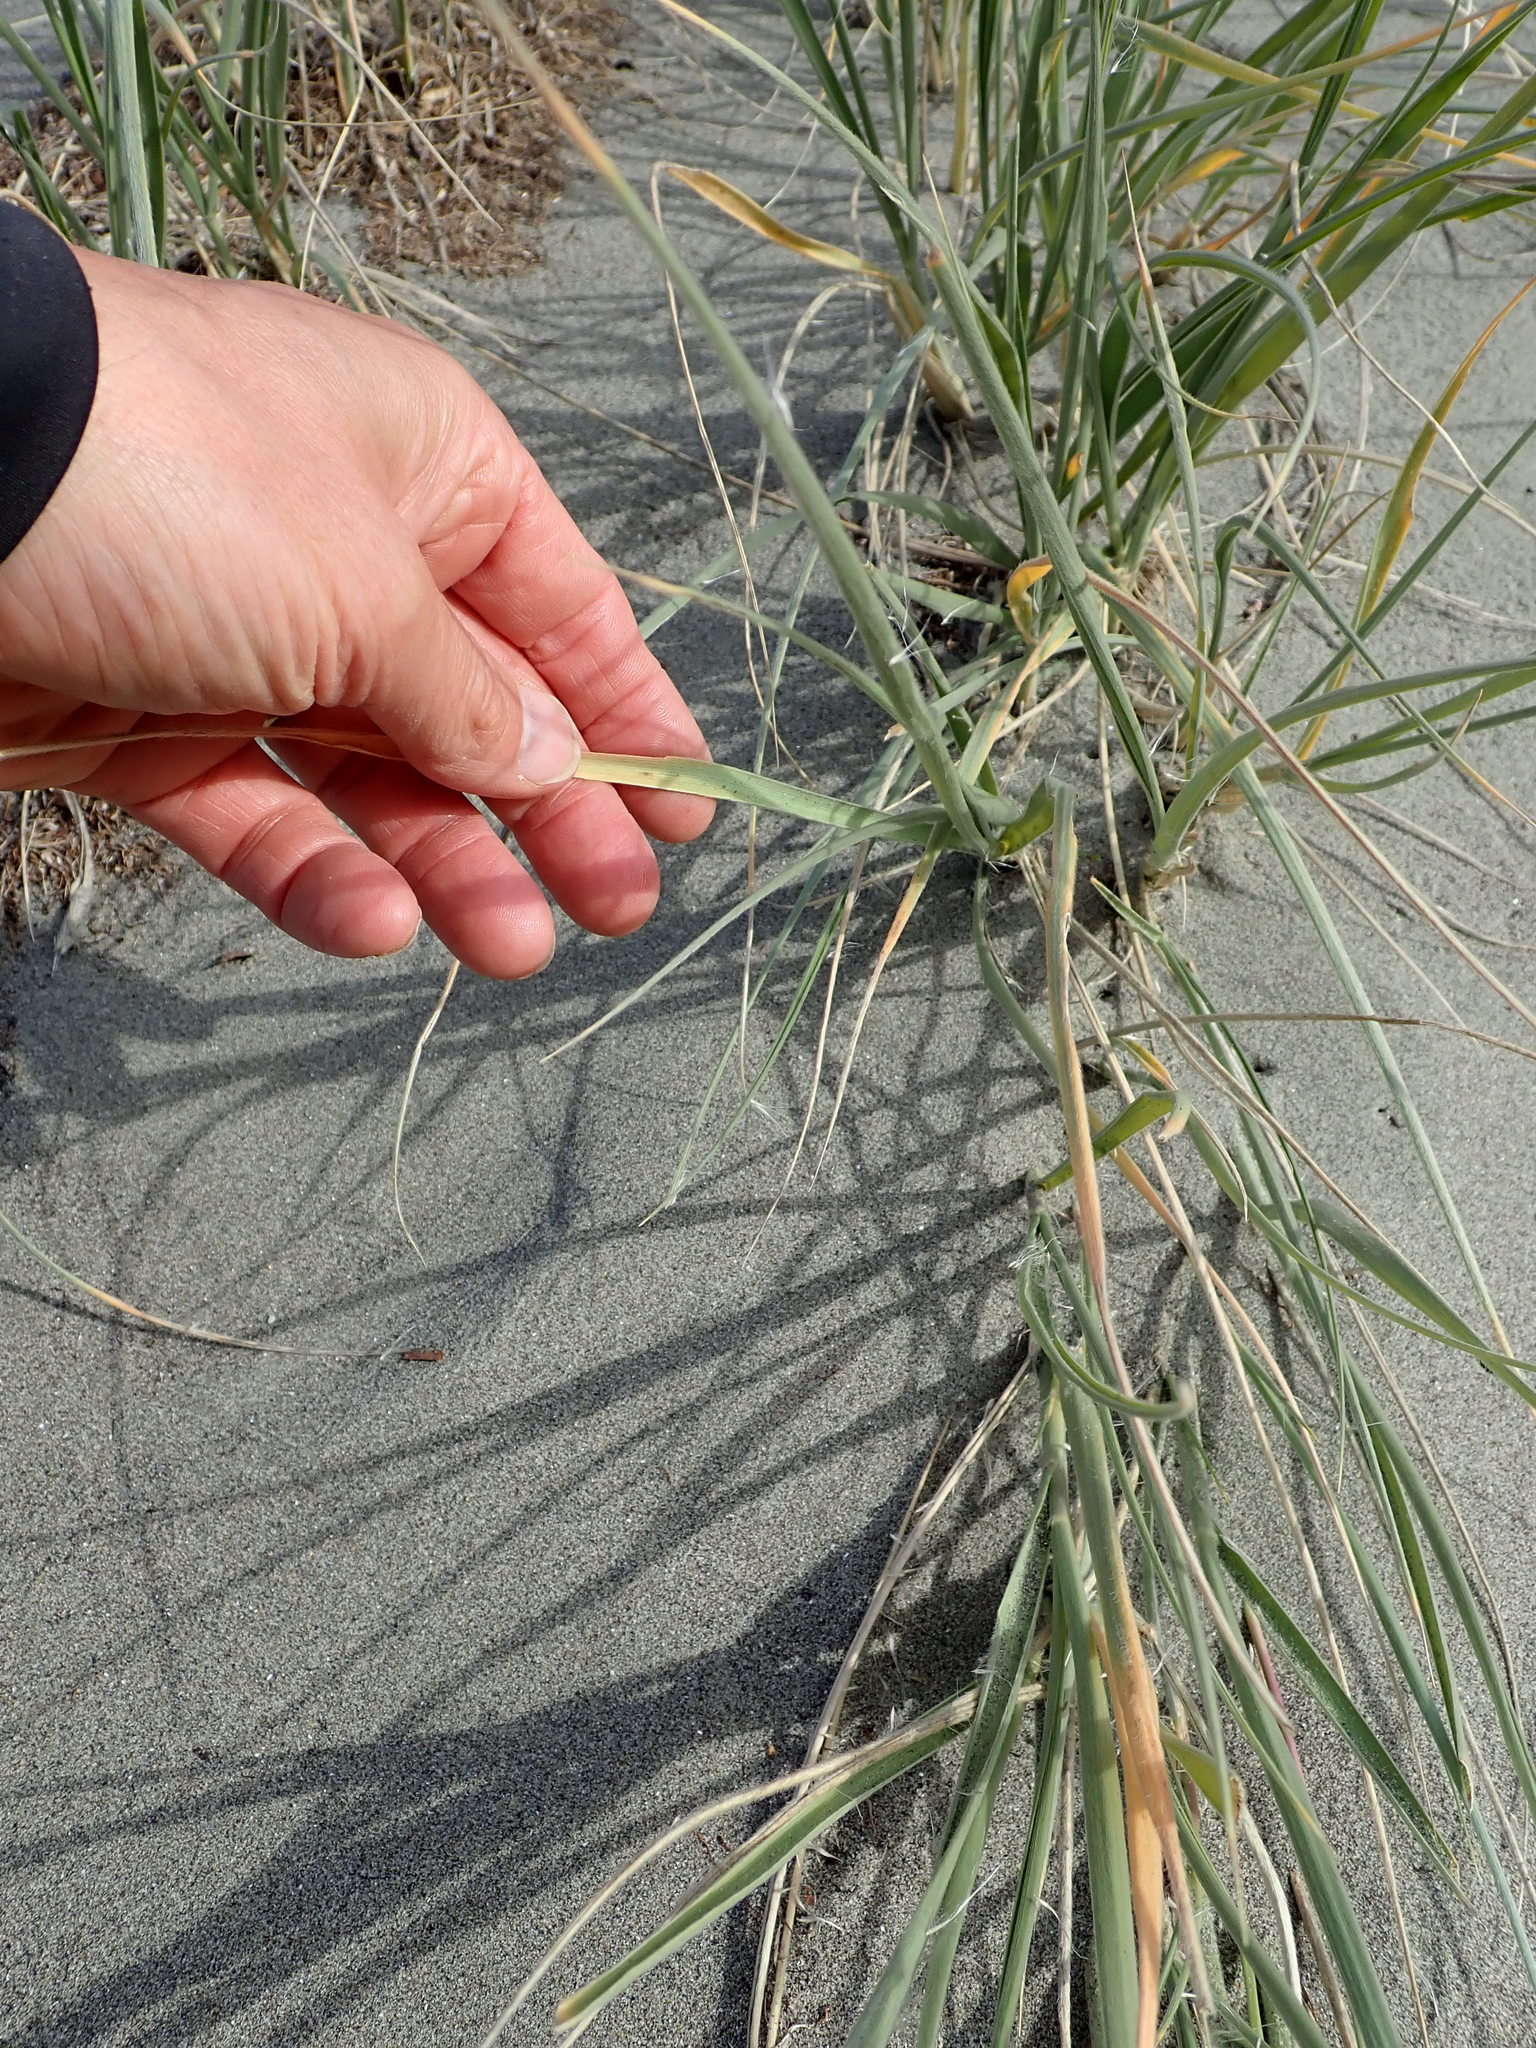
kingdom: Plantae
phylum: Tracheophyta
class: Liliopsida
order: Poales
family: Poaceae
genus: Spinifex
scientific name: Spinifex sericeus
